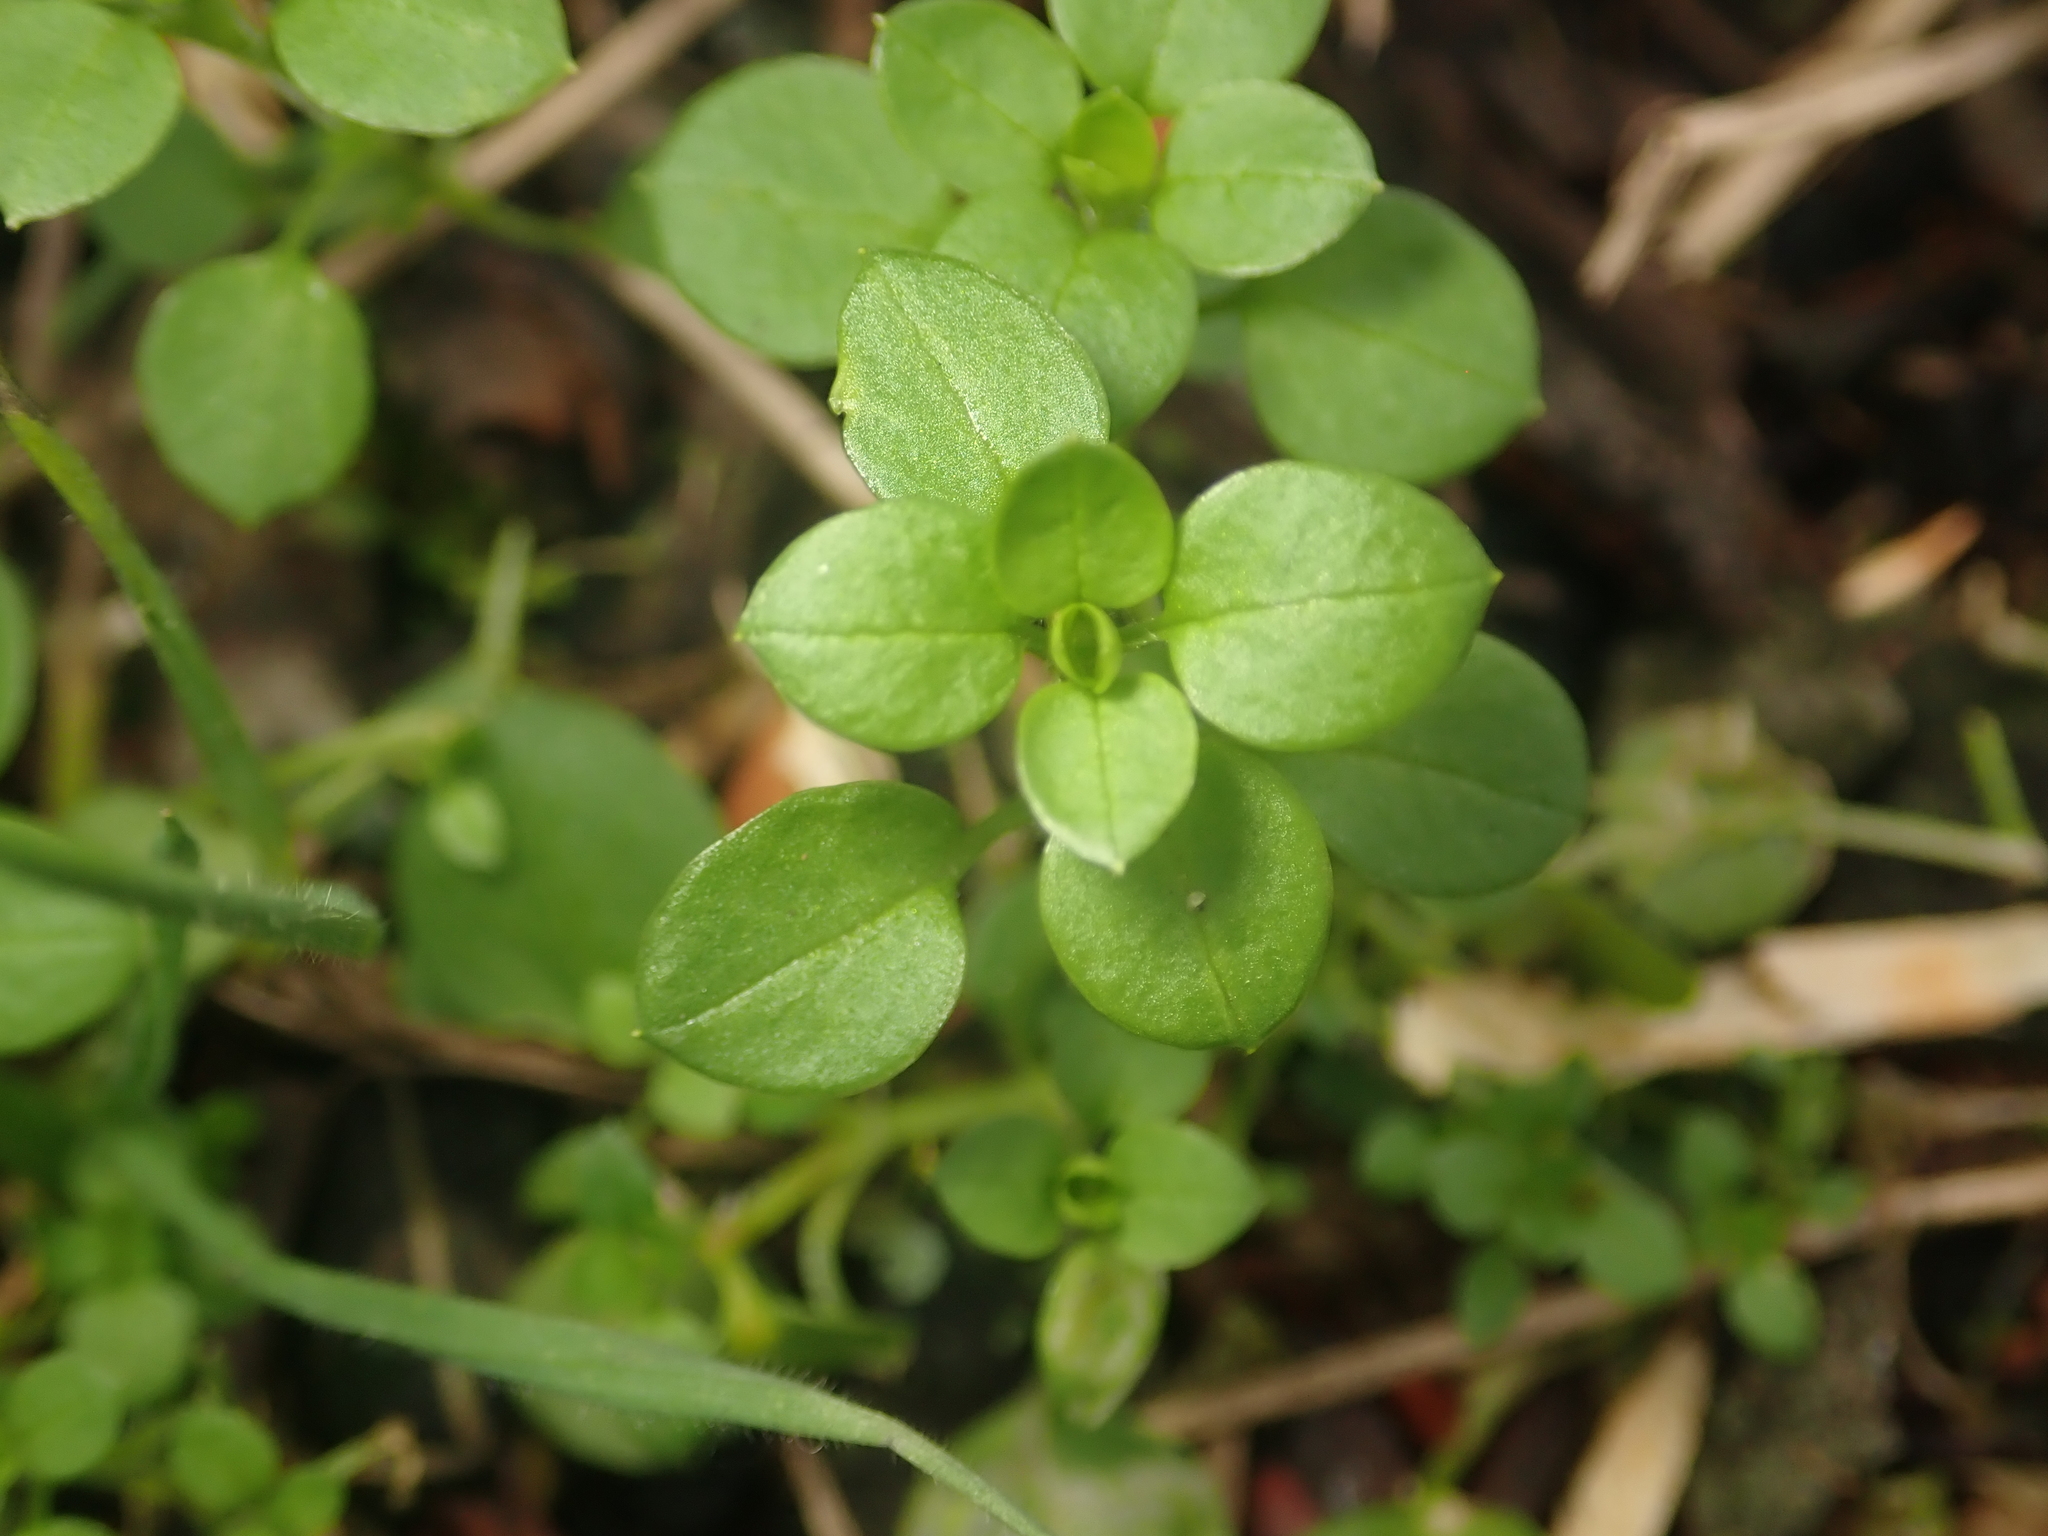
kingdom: Plantae
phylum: Tracheophyta
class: Magnoliopsida
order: Caryophyllales
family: Caryophyllaceae
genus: Stellaria
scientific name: Stellaria media
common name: Common chickweed
